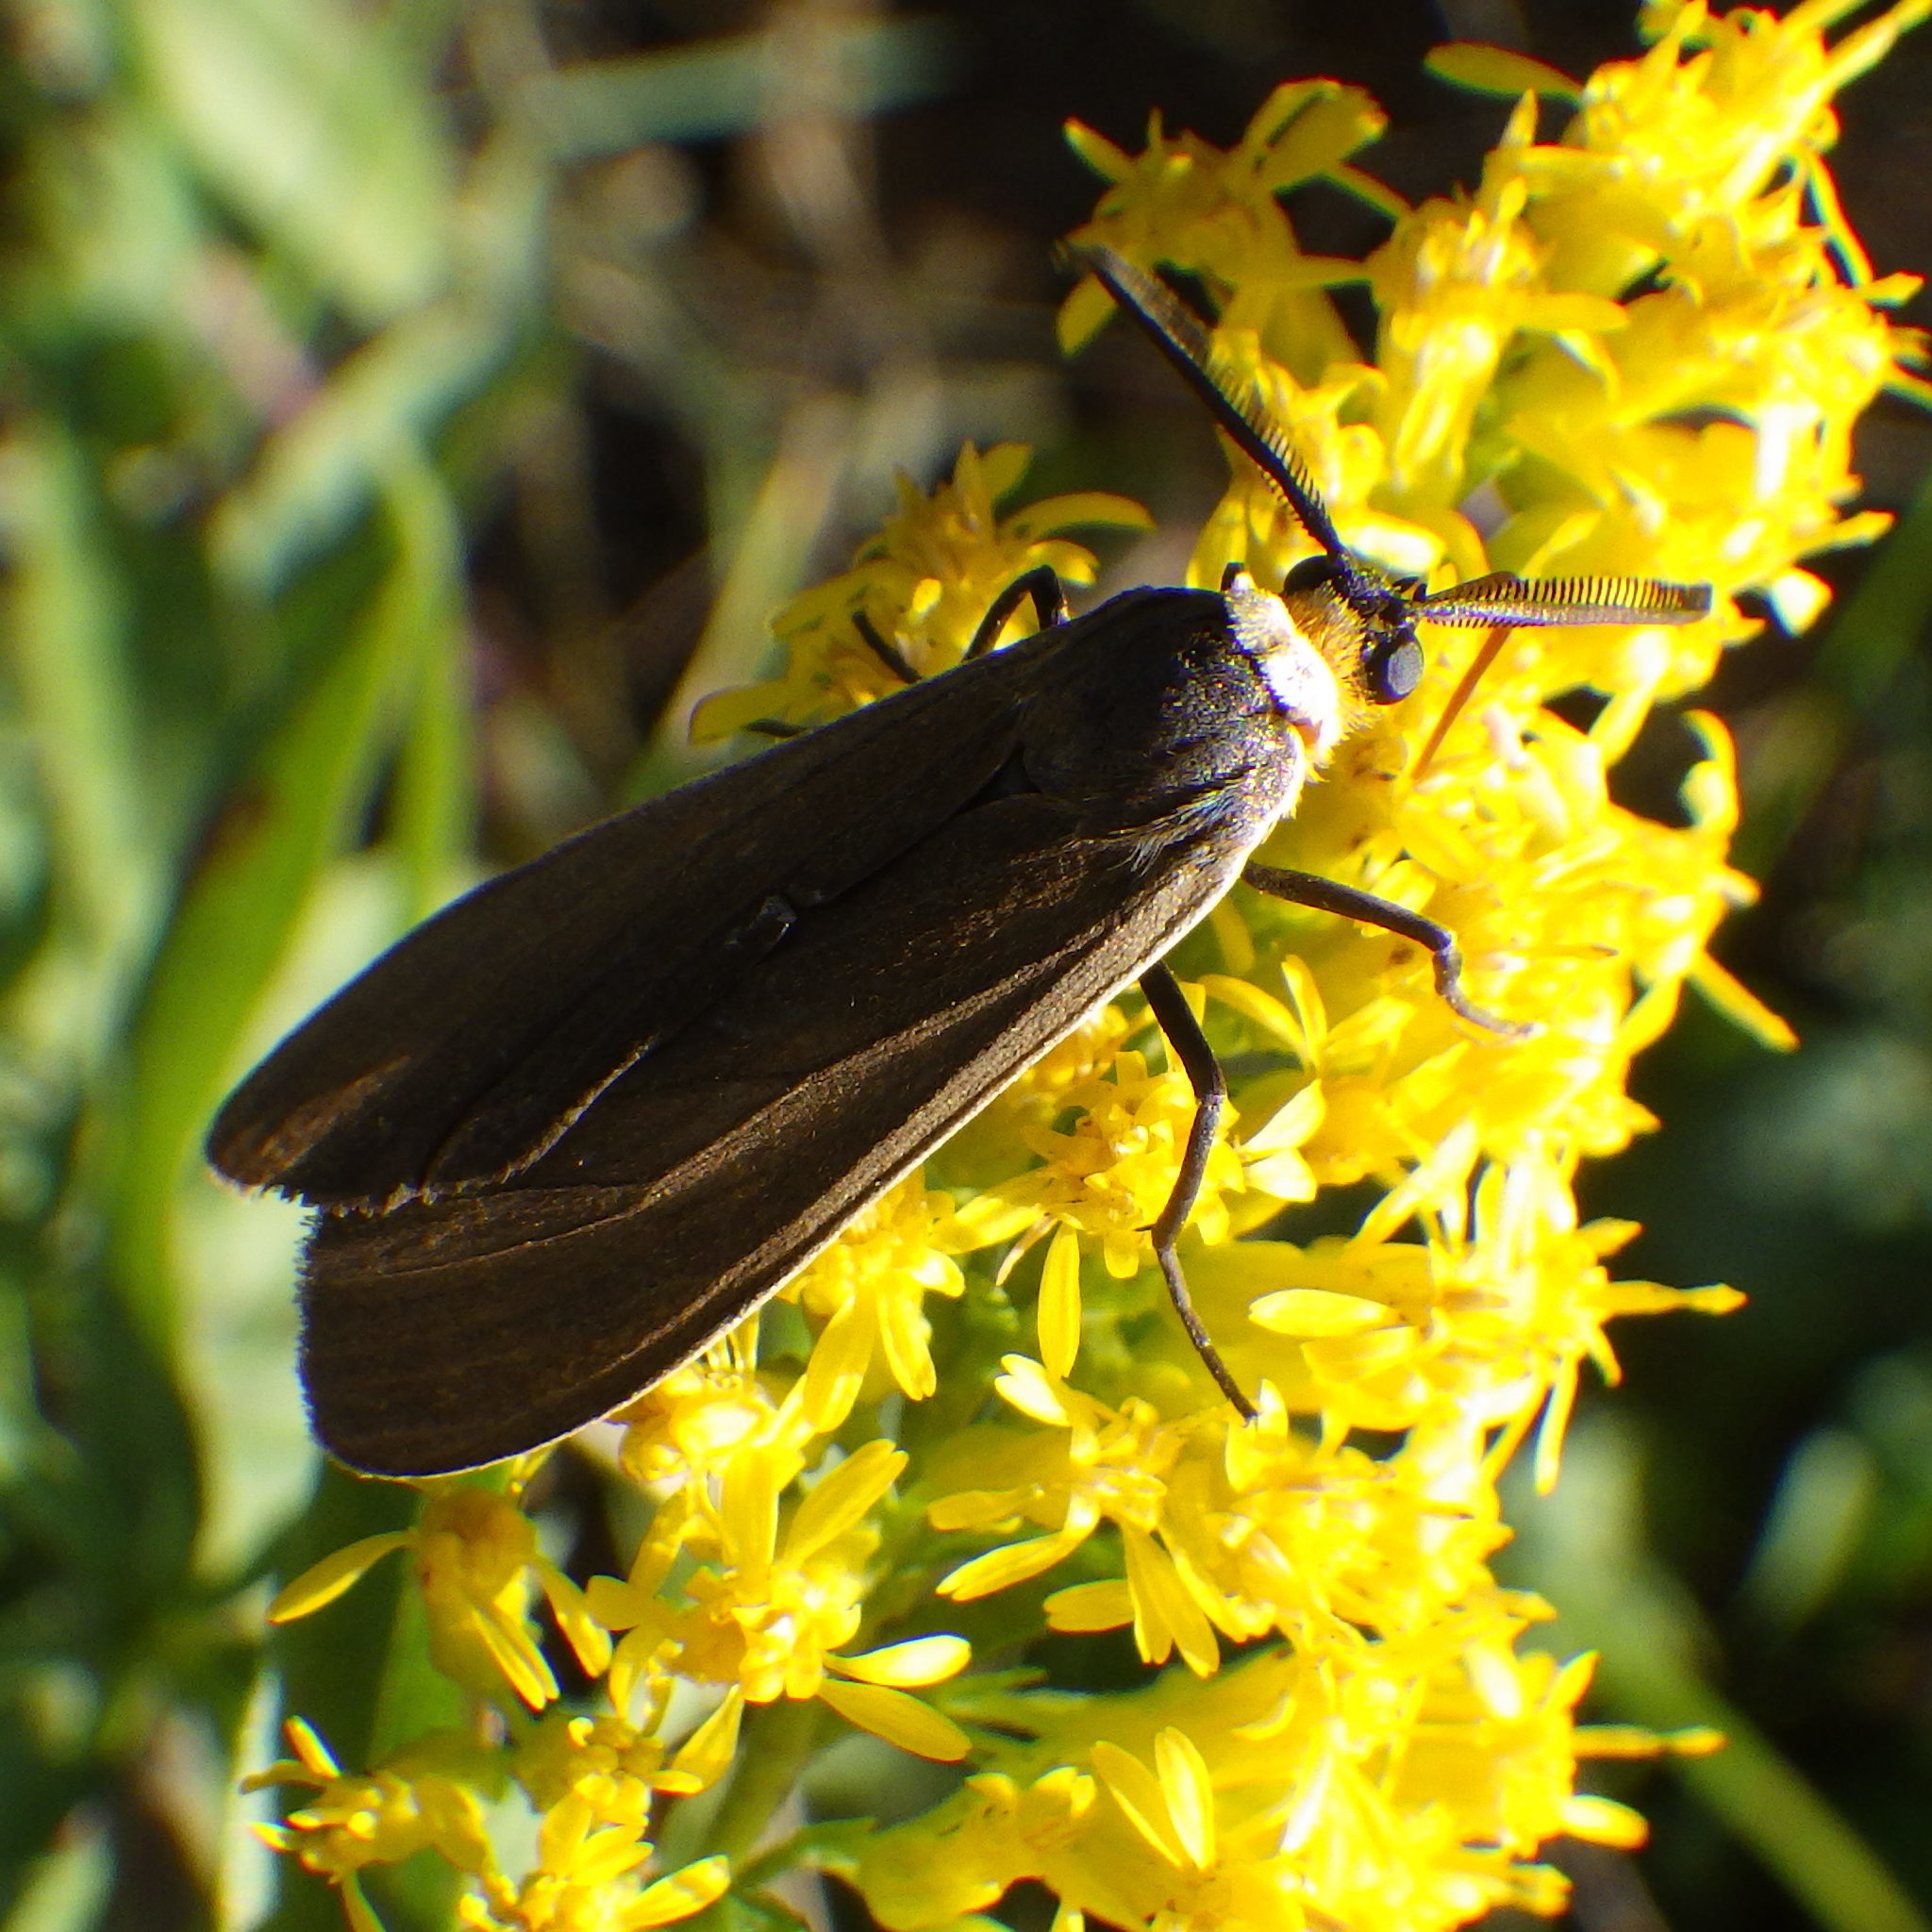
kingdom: Animalia
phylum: Arthropoda
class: Insecta
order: Lepidoptera
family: Erebidae
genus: Cisseps
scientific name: Cisseps fulvicollis
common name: Yellow-collared scape moth
